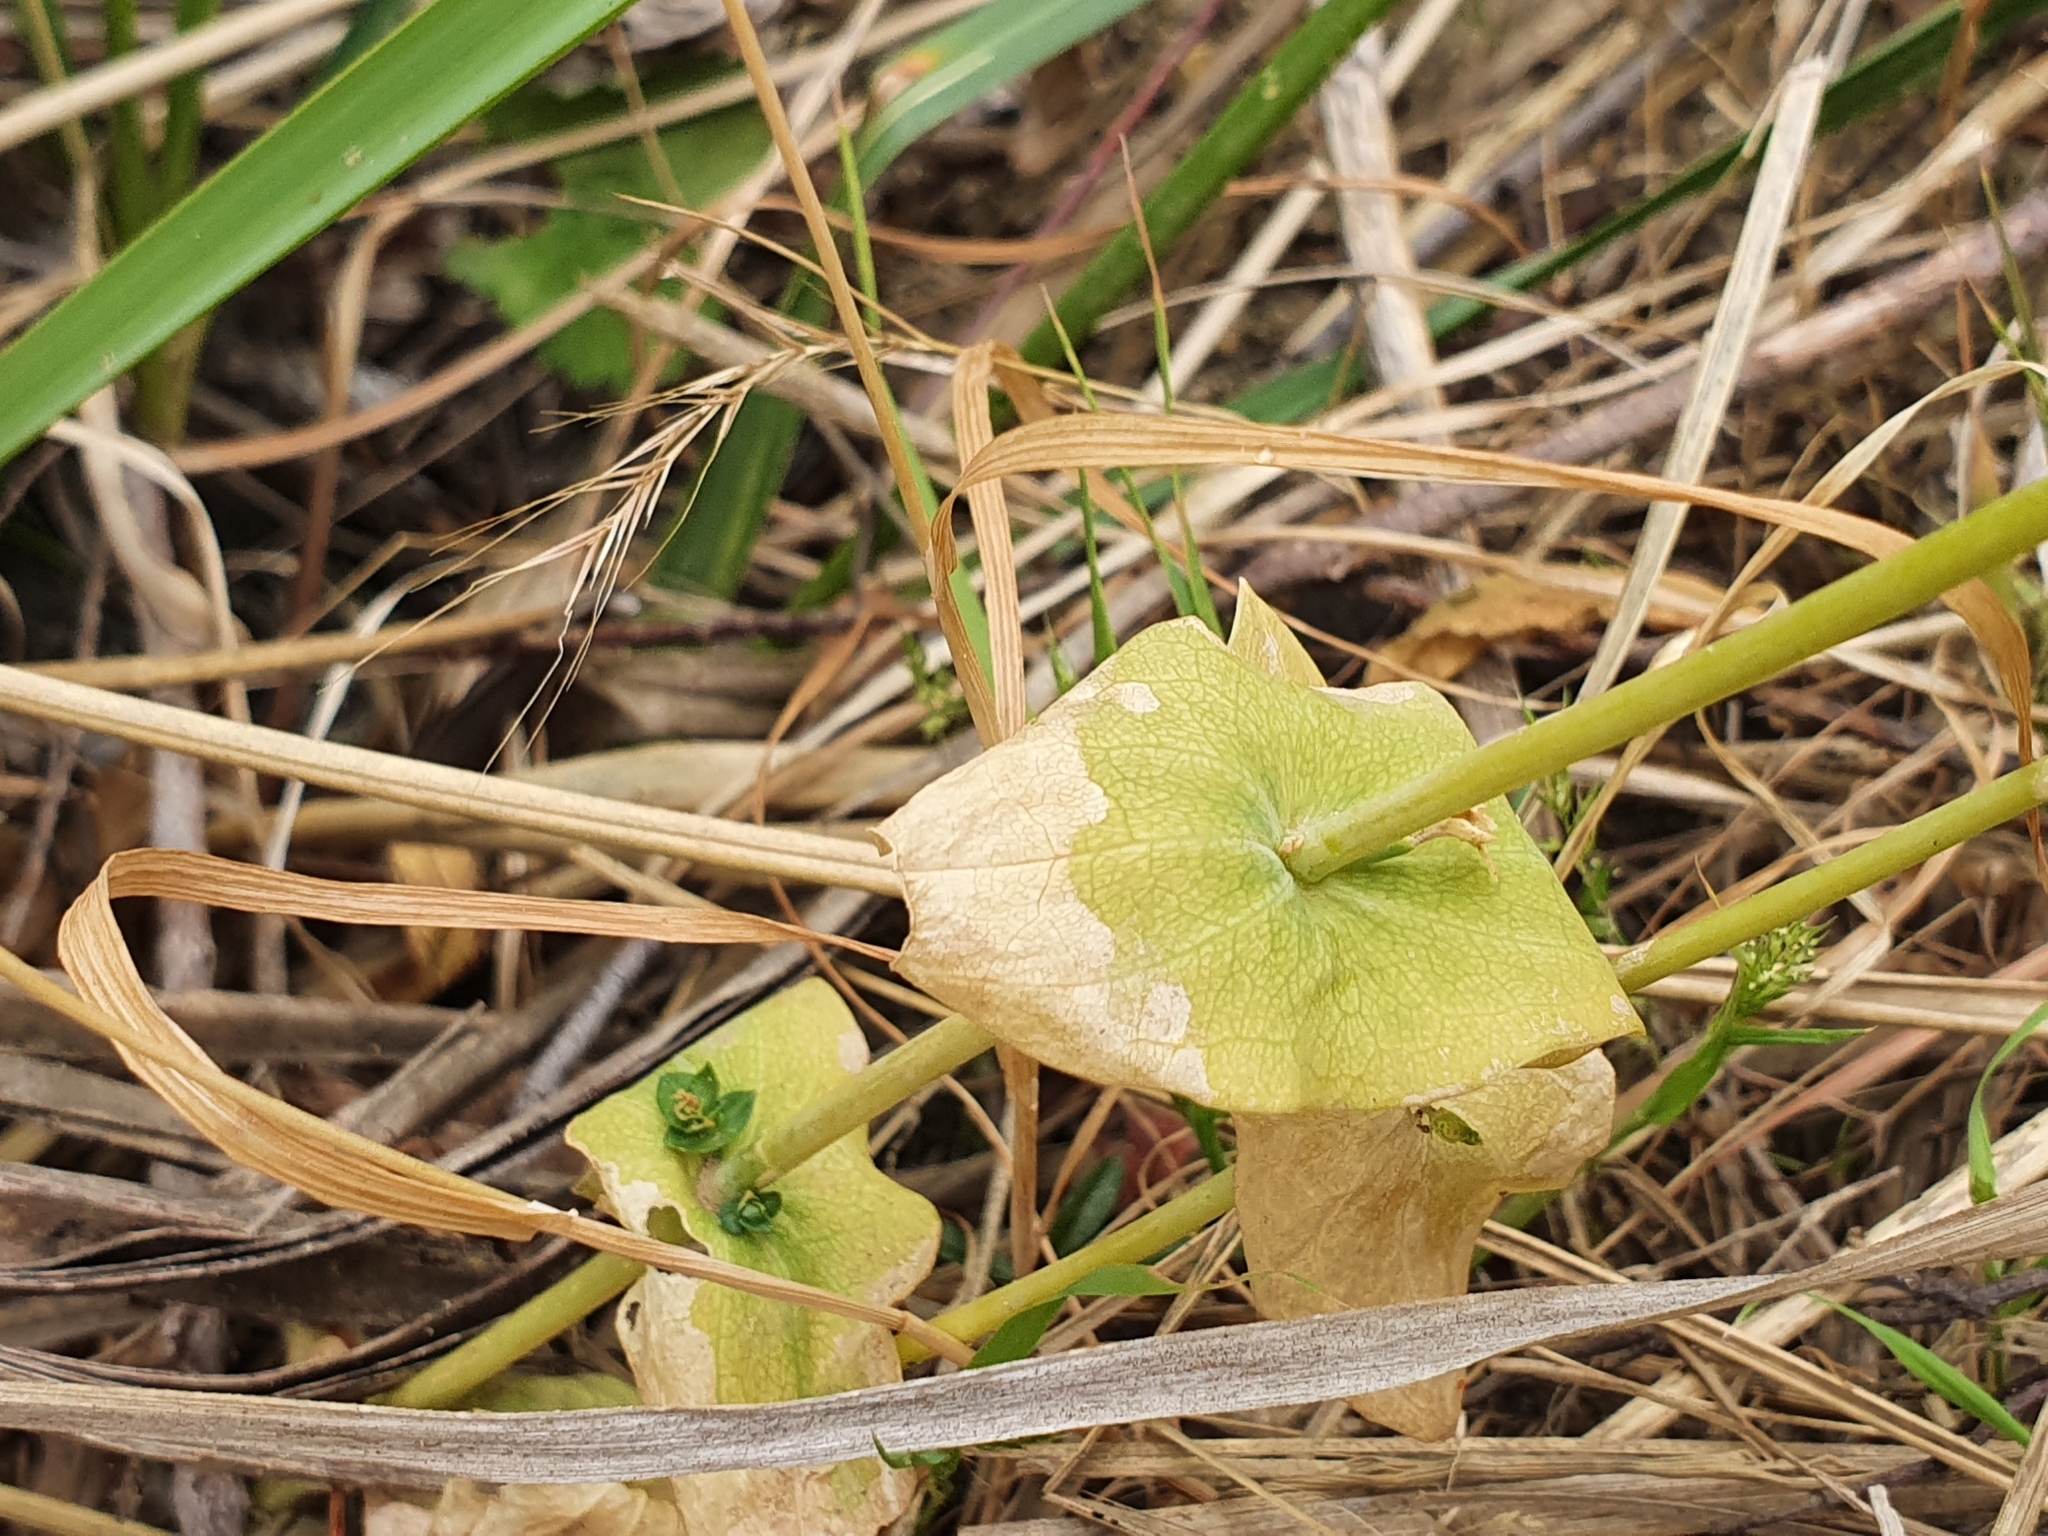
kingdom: Plantae
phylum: Tracheophyta
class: Magnoliopsida
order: Gentianales
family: Gentianaceae
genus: Blackstonia
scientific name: Blackstonia grandiflora
